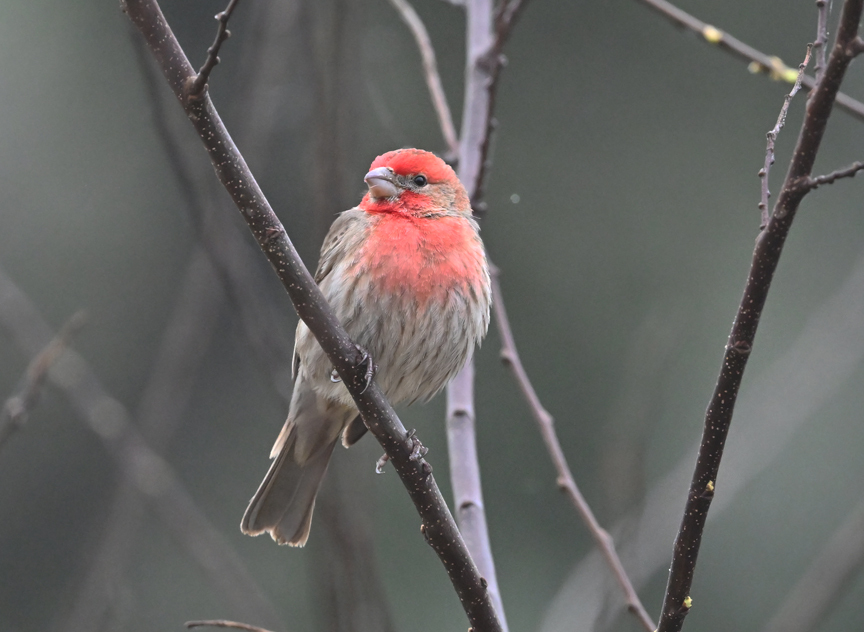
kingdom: Animalia
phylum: Chordata
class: Aves
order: Passeriformes
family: Fringillidae
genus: Haemorhous
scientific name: Haemorhous mexicanus
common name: House finch
